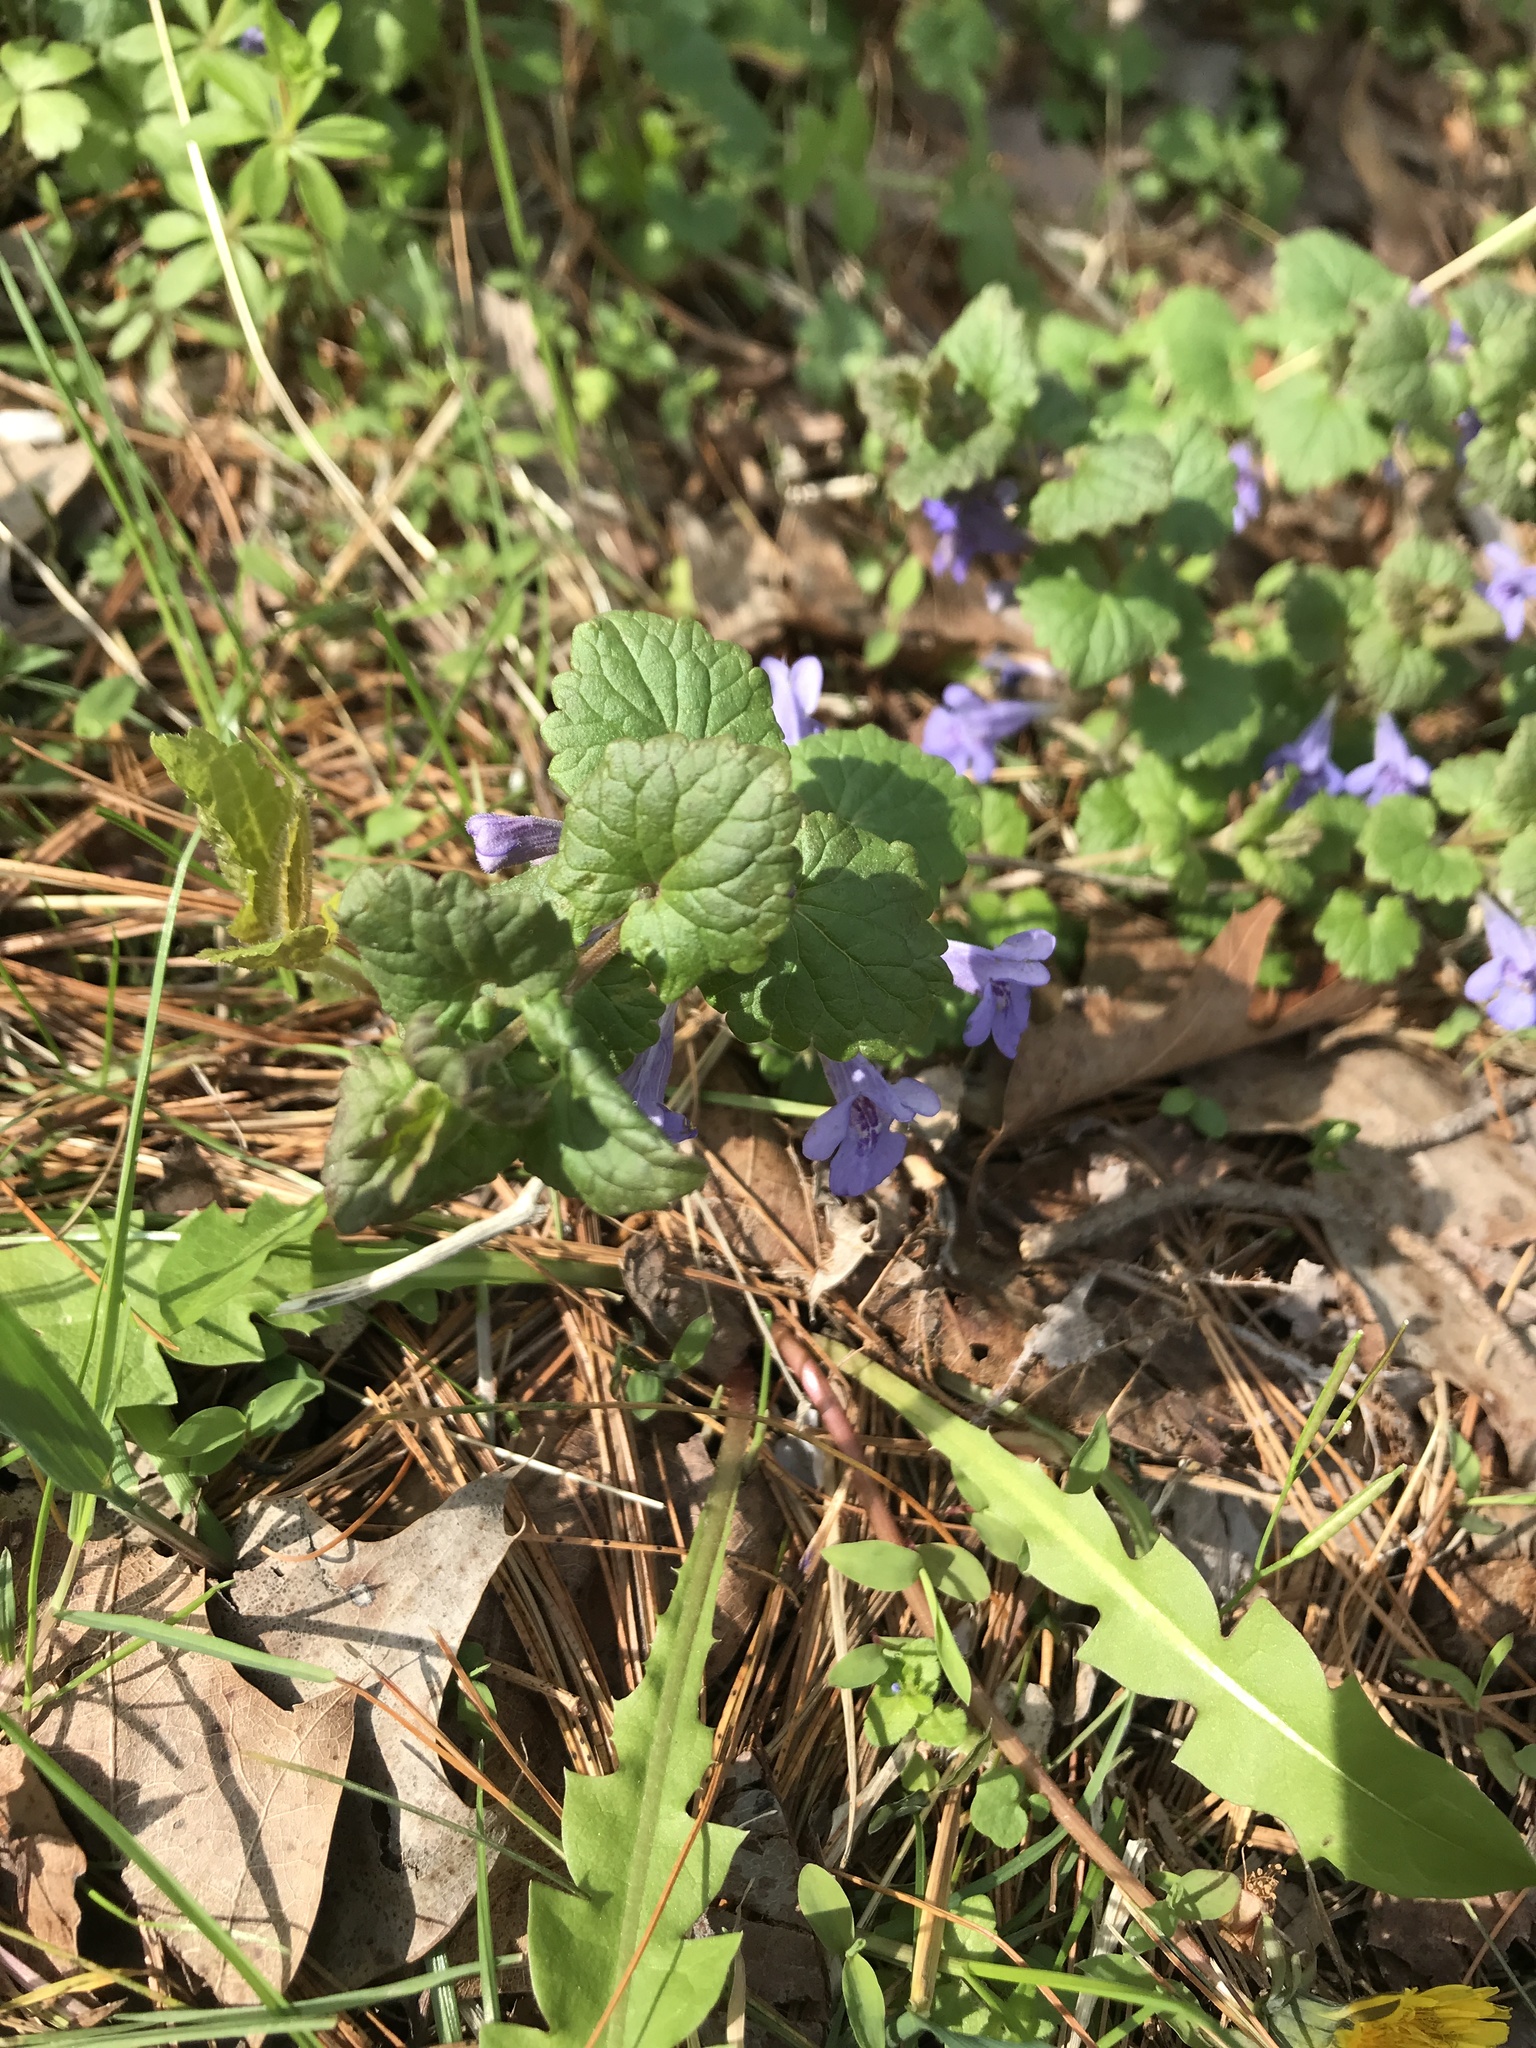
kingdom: Plantae
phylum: Tracheophyta
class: Magnoliopsida
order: Lamiales
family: Lamiaceae
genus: Glechoma
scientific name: Glechoma hederacea
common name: Ground ivy
